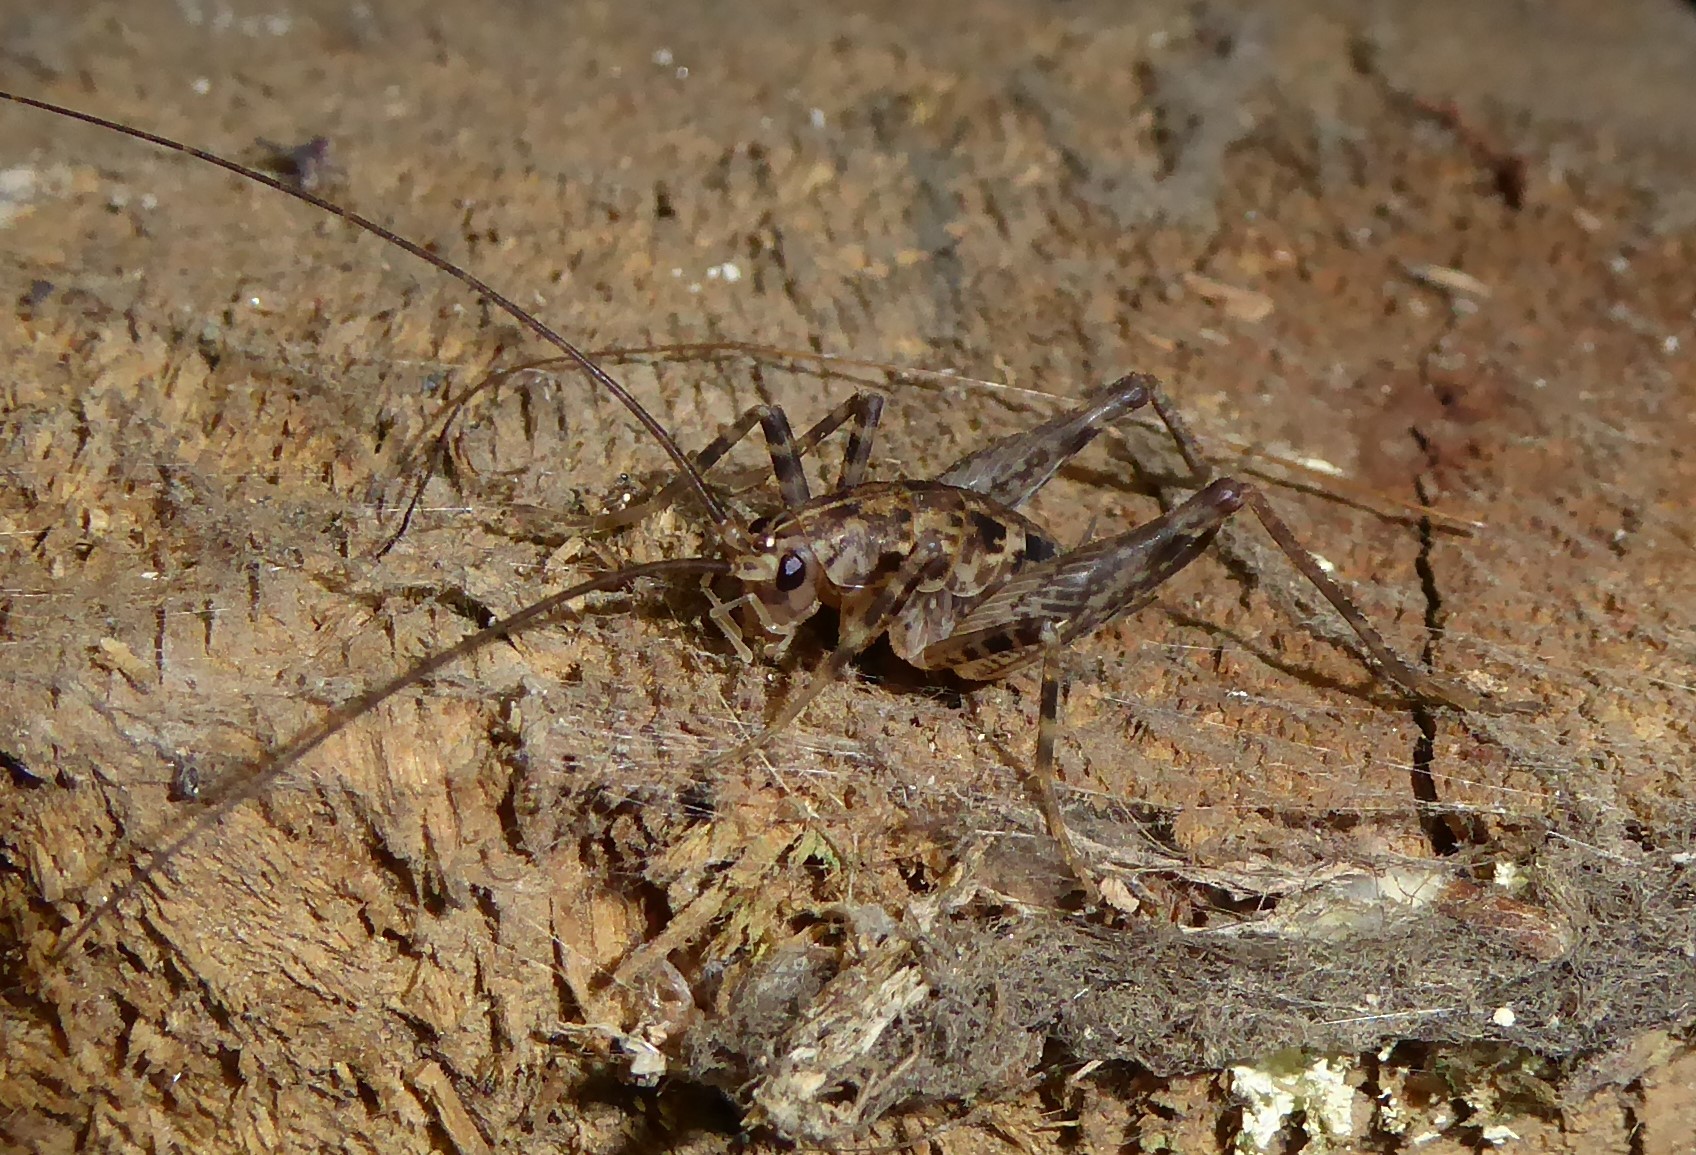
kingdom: Animalia
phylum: Arthropoda
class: Insecta
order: Orthoptera
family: Rhaphidophoridae
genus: Pleioplectron
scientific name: Pleioplectron simplex
